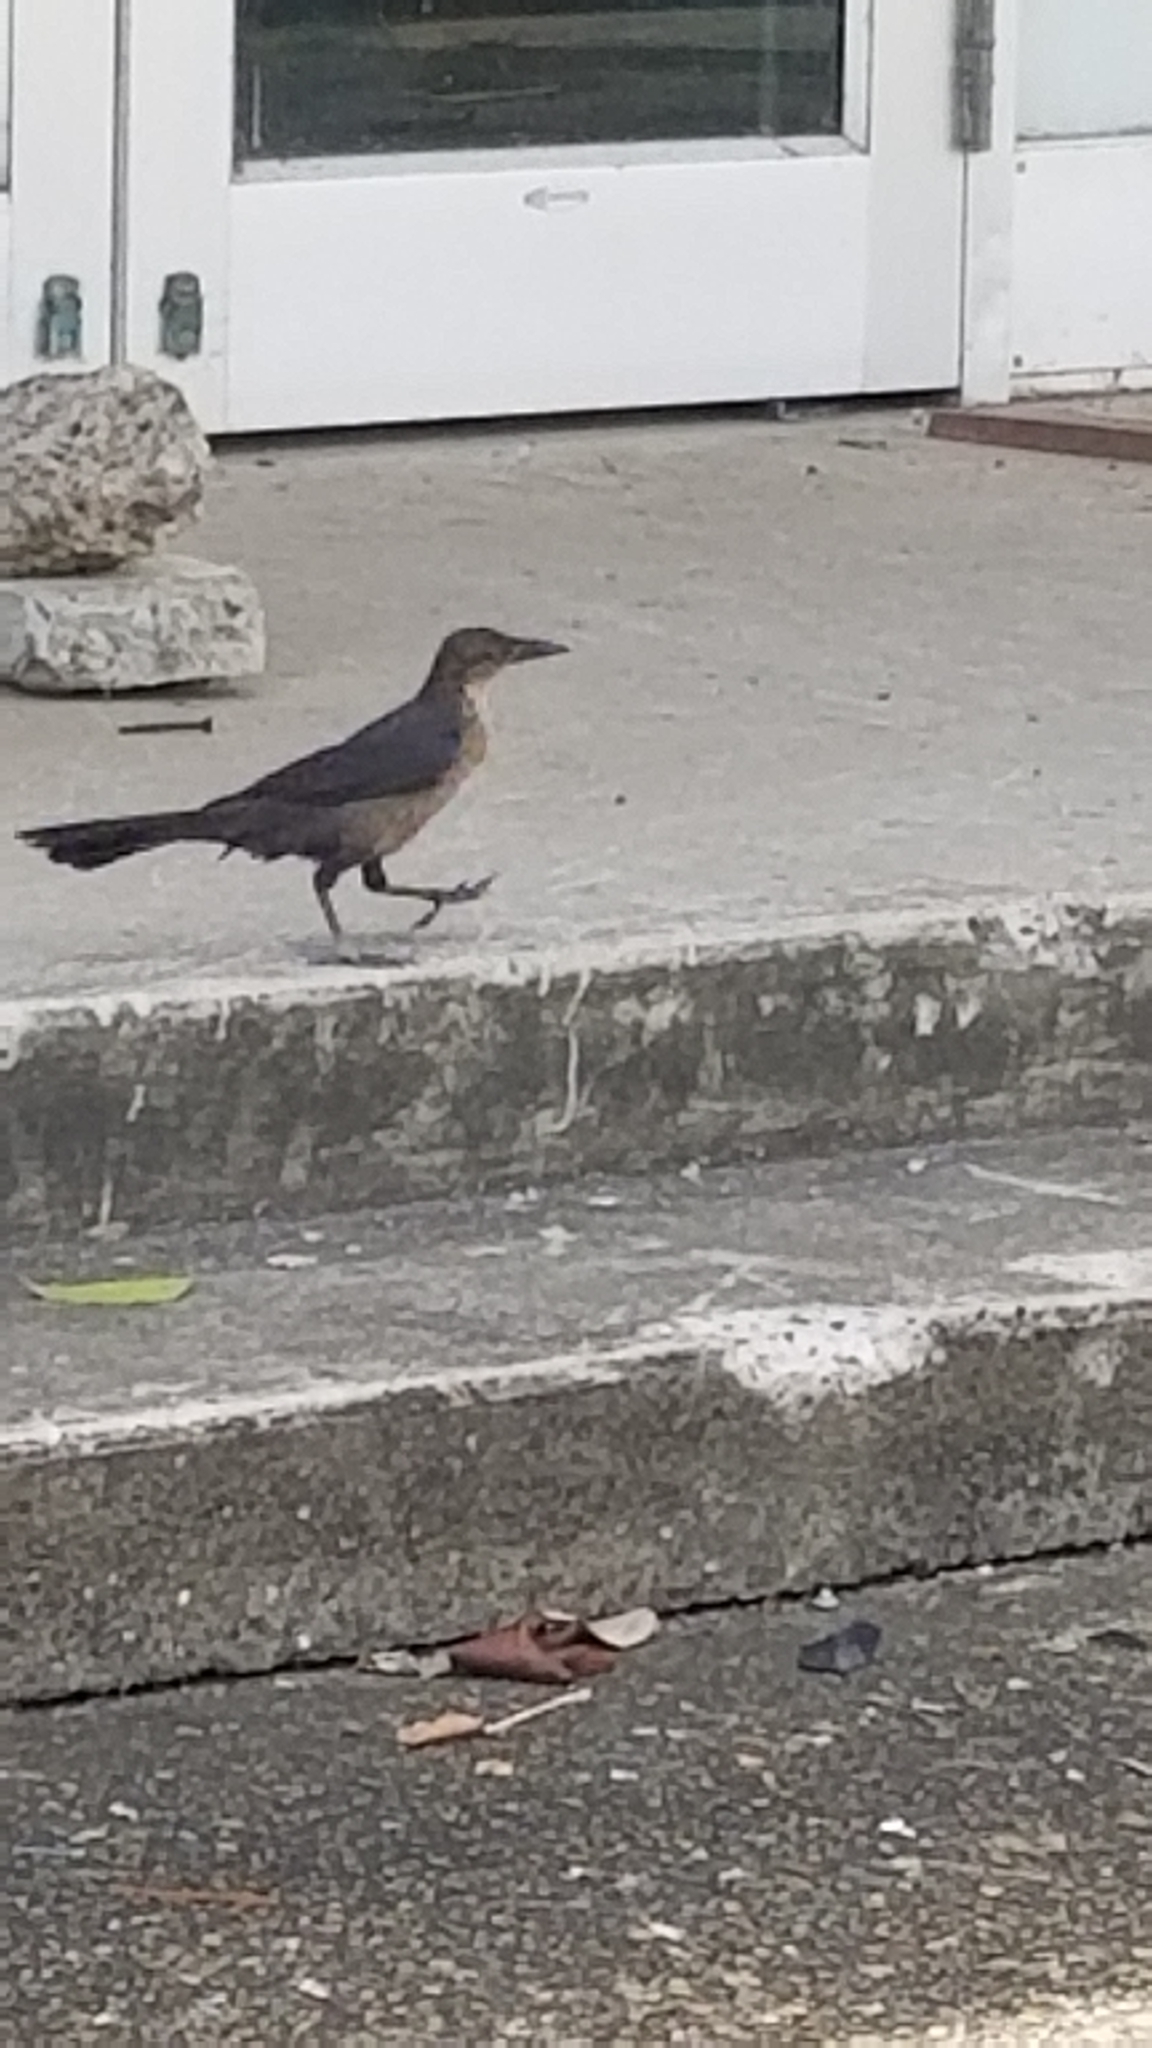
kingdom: Animalia
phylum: Chordata
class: Aves
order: Passeriformes
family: Icteridae
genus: Quiscalus
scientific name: Quiscalus mexicanus
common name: Great-tailed grackle
